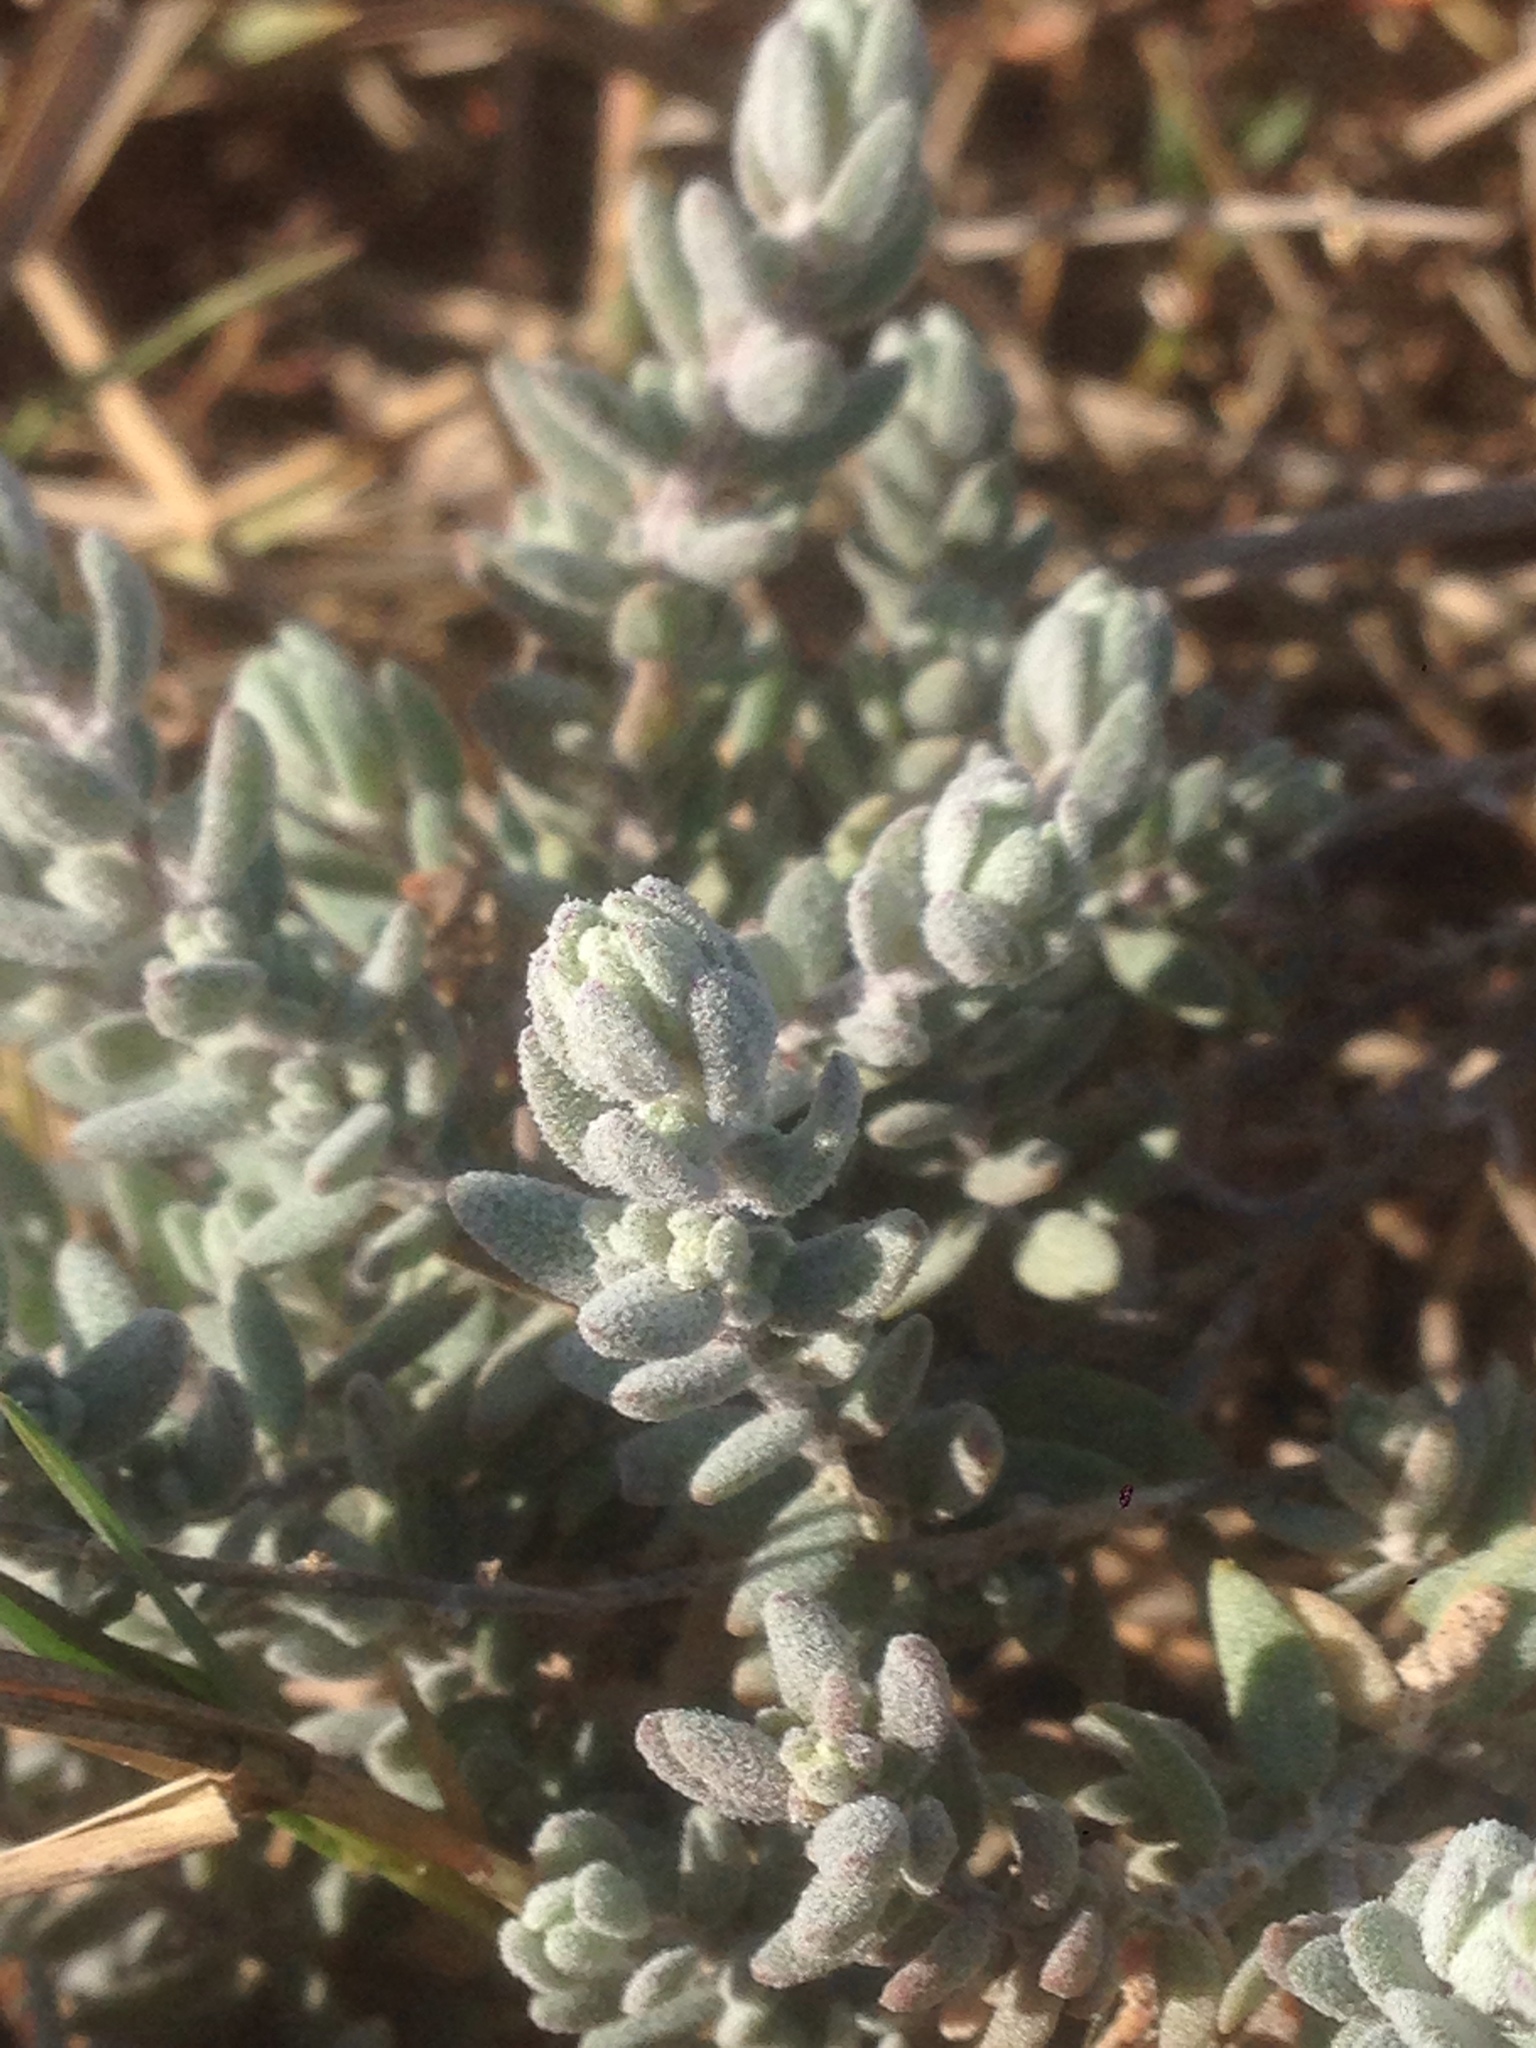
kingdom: Plantae
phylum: Tracheophyta
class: Magnoliopsida
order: Caryophyllales
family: Amaranthaceae
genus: Extriplex
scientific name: Extriplex californica
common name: California saltbush
